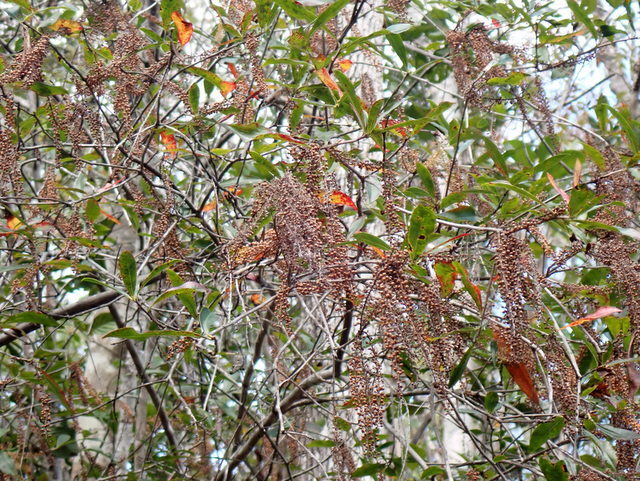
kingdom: Plantae
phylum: Tracheophyta
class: Magnoliopsida
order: Ericales
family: Cyrillaceae
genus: Cyrilla
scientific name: Cyrilla racemiflora
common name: Black titi
